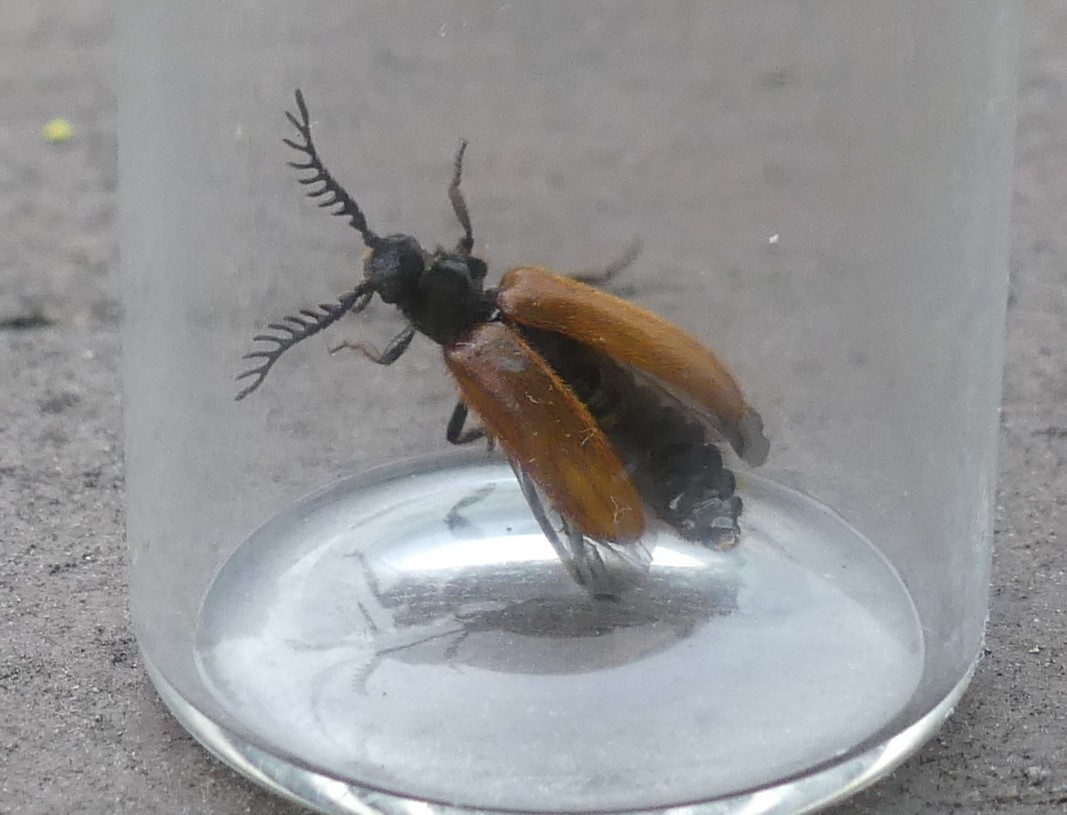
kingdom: Animalia
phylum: Arthropoda
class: Insecta
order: Coleoptera
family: Drilidae
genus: Drilus
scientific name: Drilus flavescens
